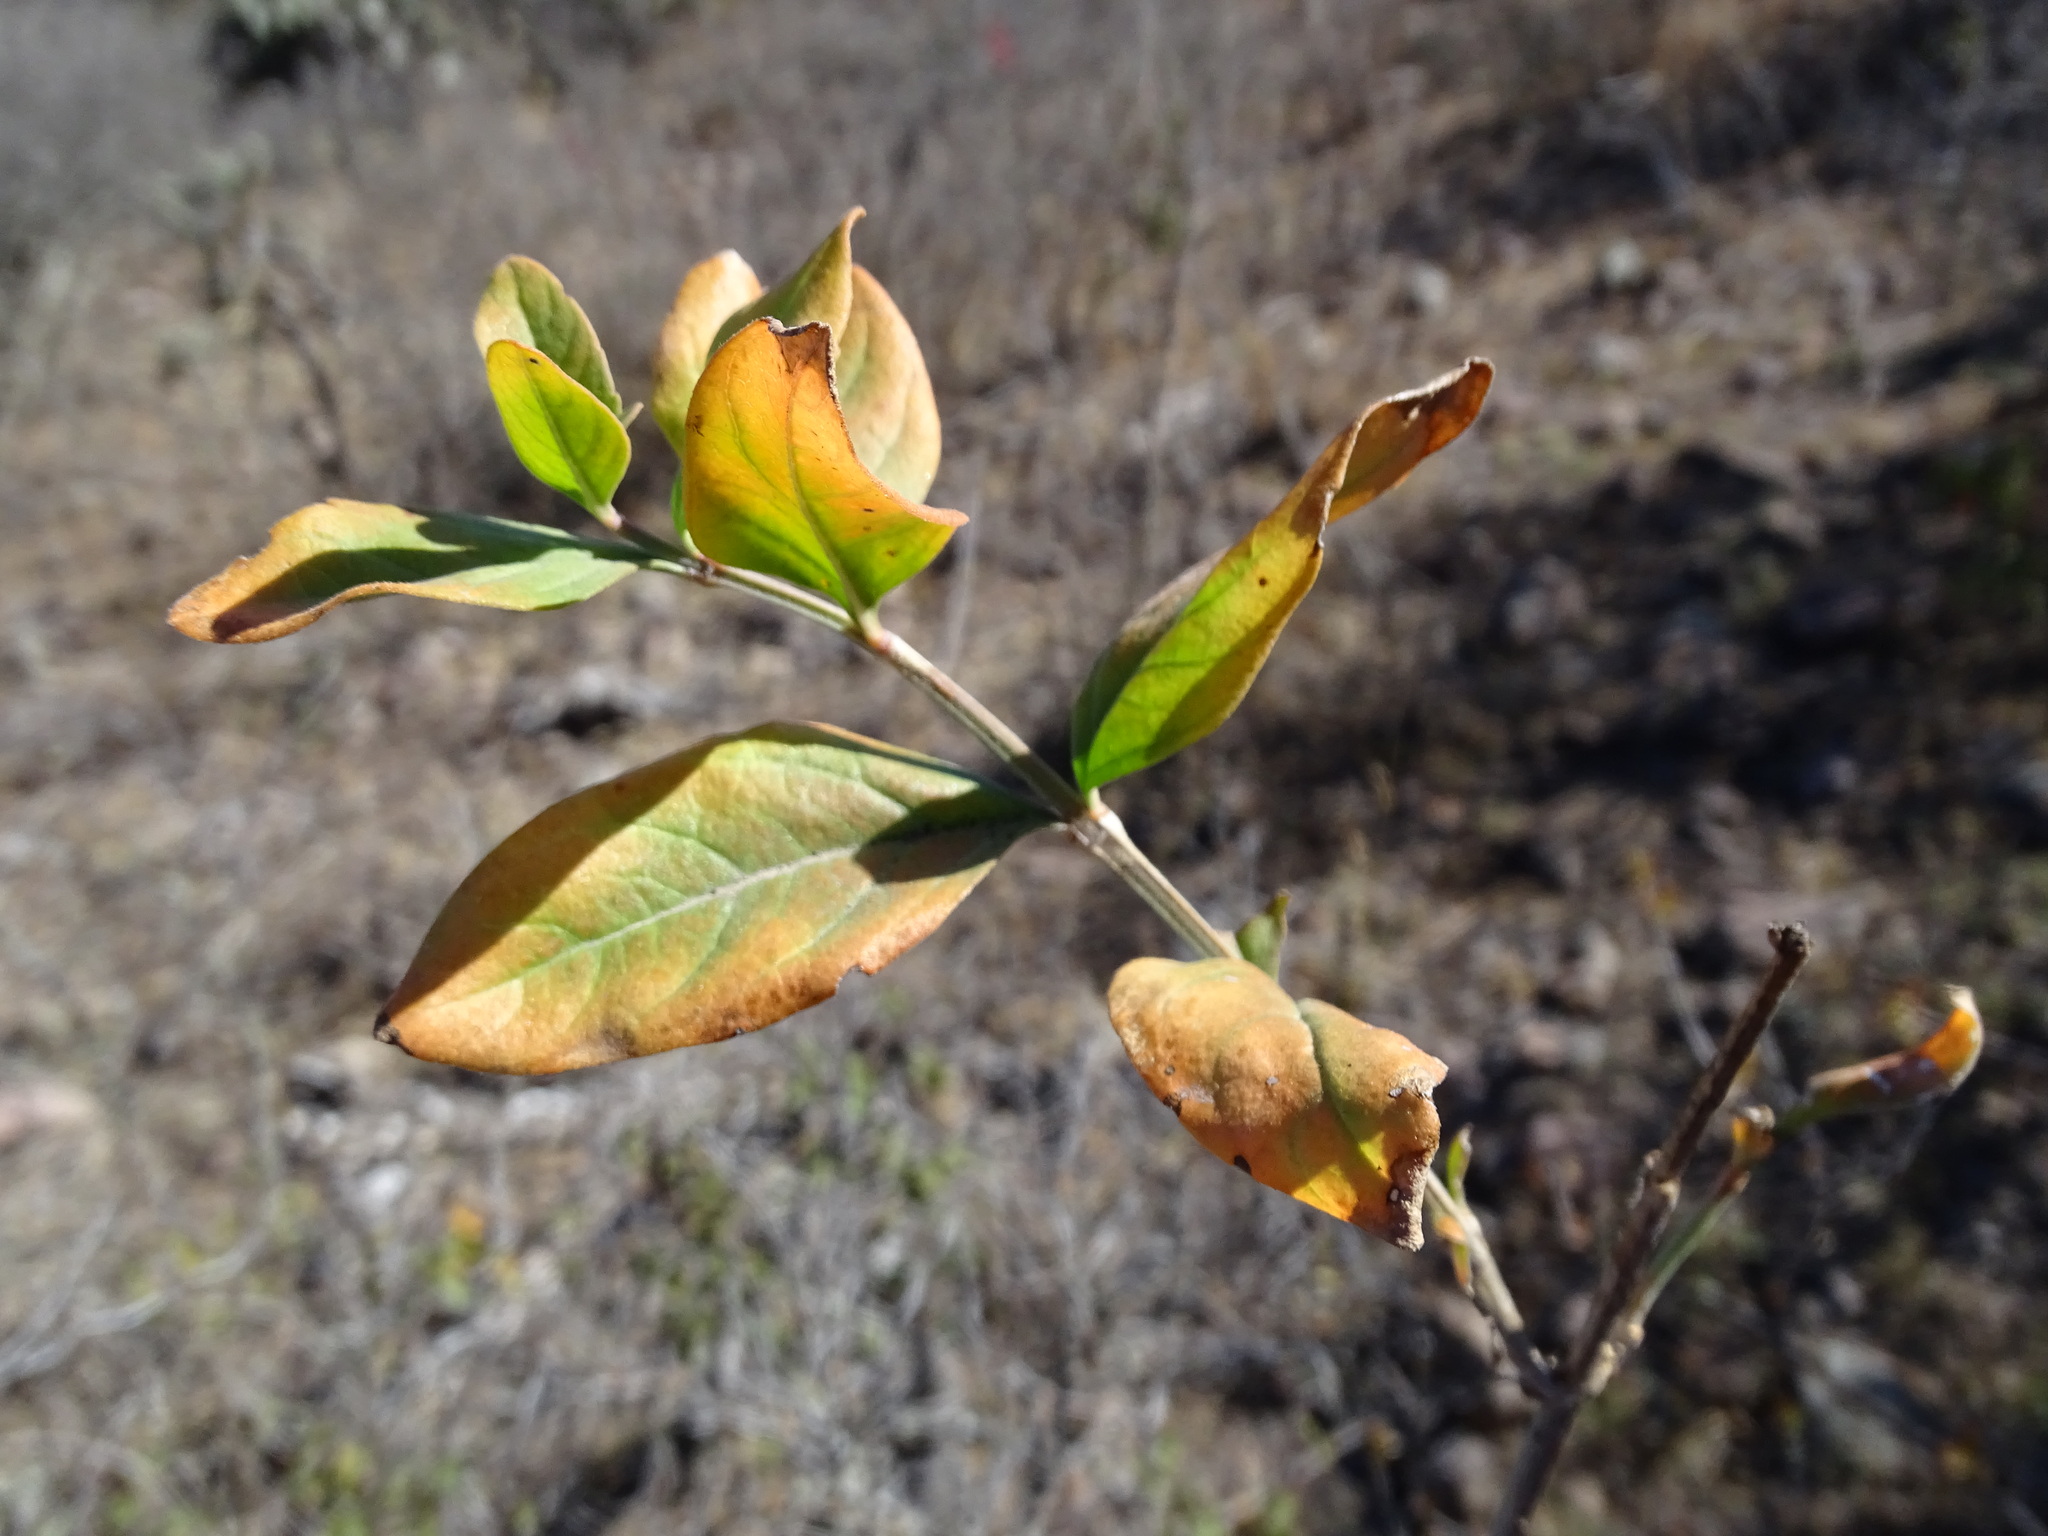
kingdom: Plantae
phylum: Tracheophyta
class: Magnoliopsida
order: Lamiales
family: Verbenaceae
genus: Citharexylum
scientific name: Citharexylum racemosum
